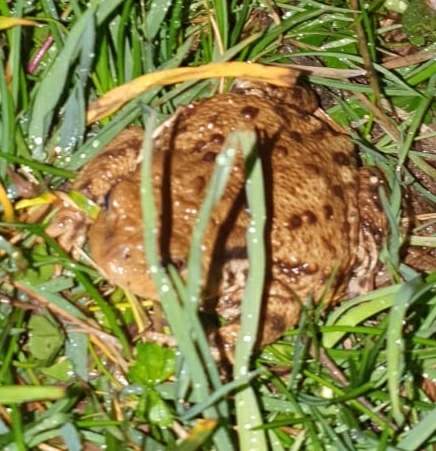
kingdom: Animalia
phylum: Chordata
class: Amphibia
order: Anura
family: Bufonidae
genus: Bufo
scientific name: Bufo bufo
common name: Common toad
